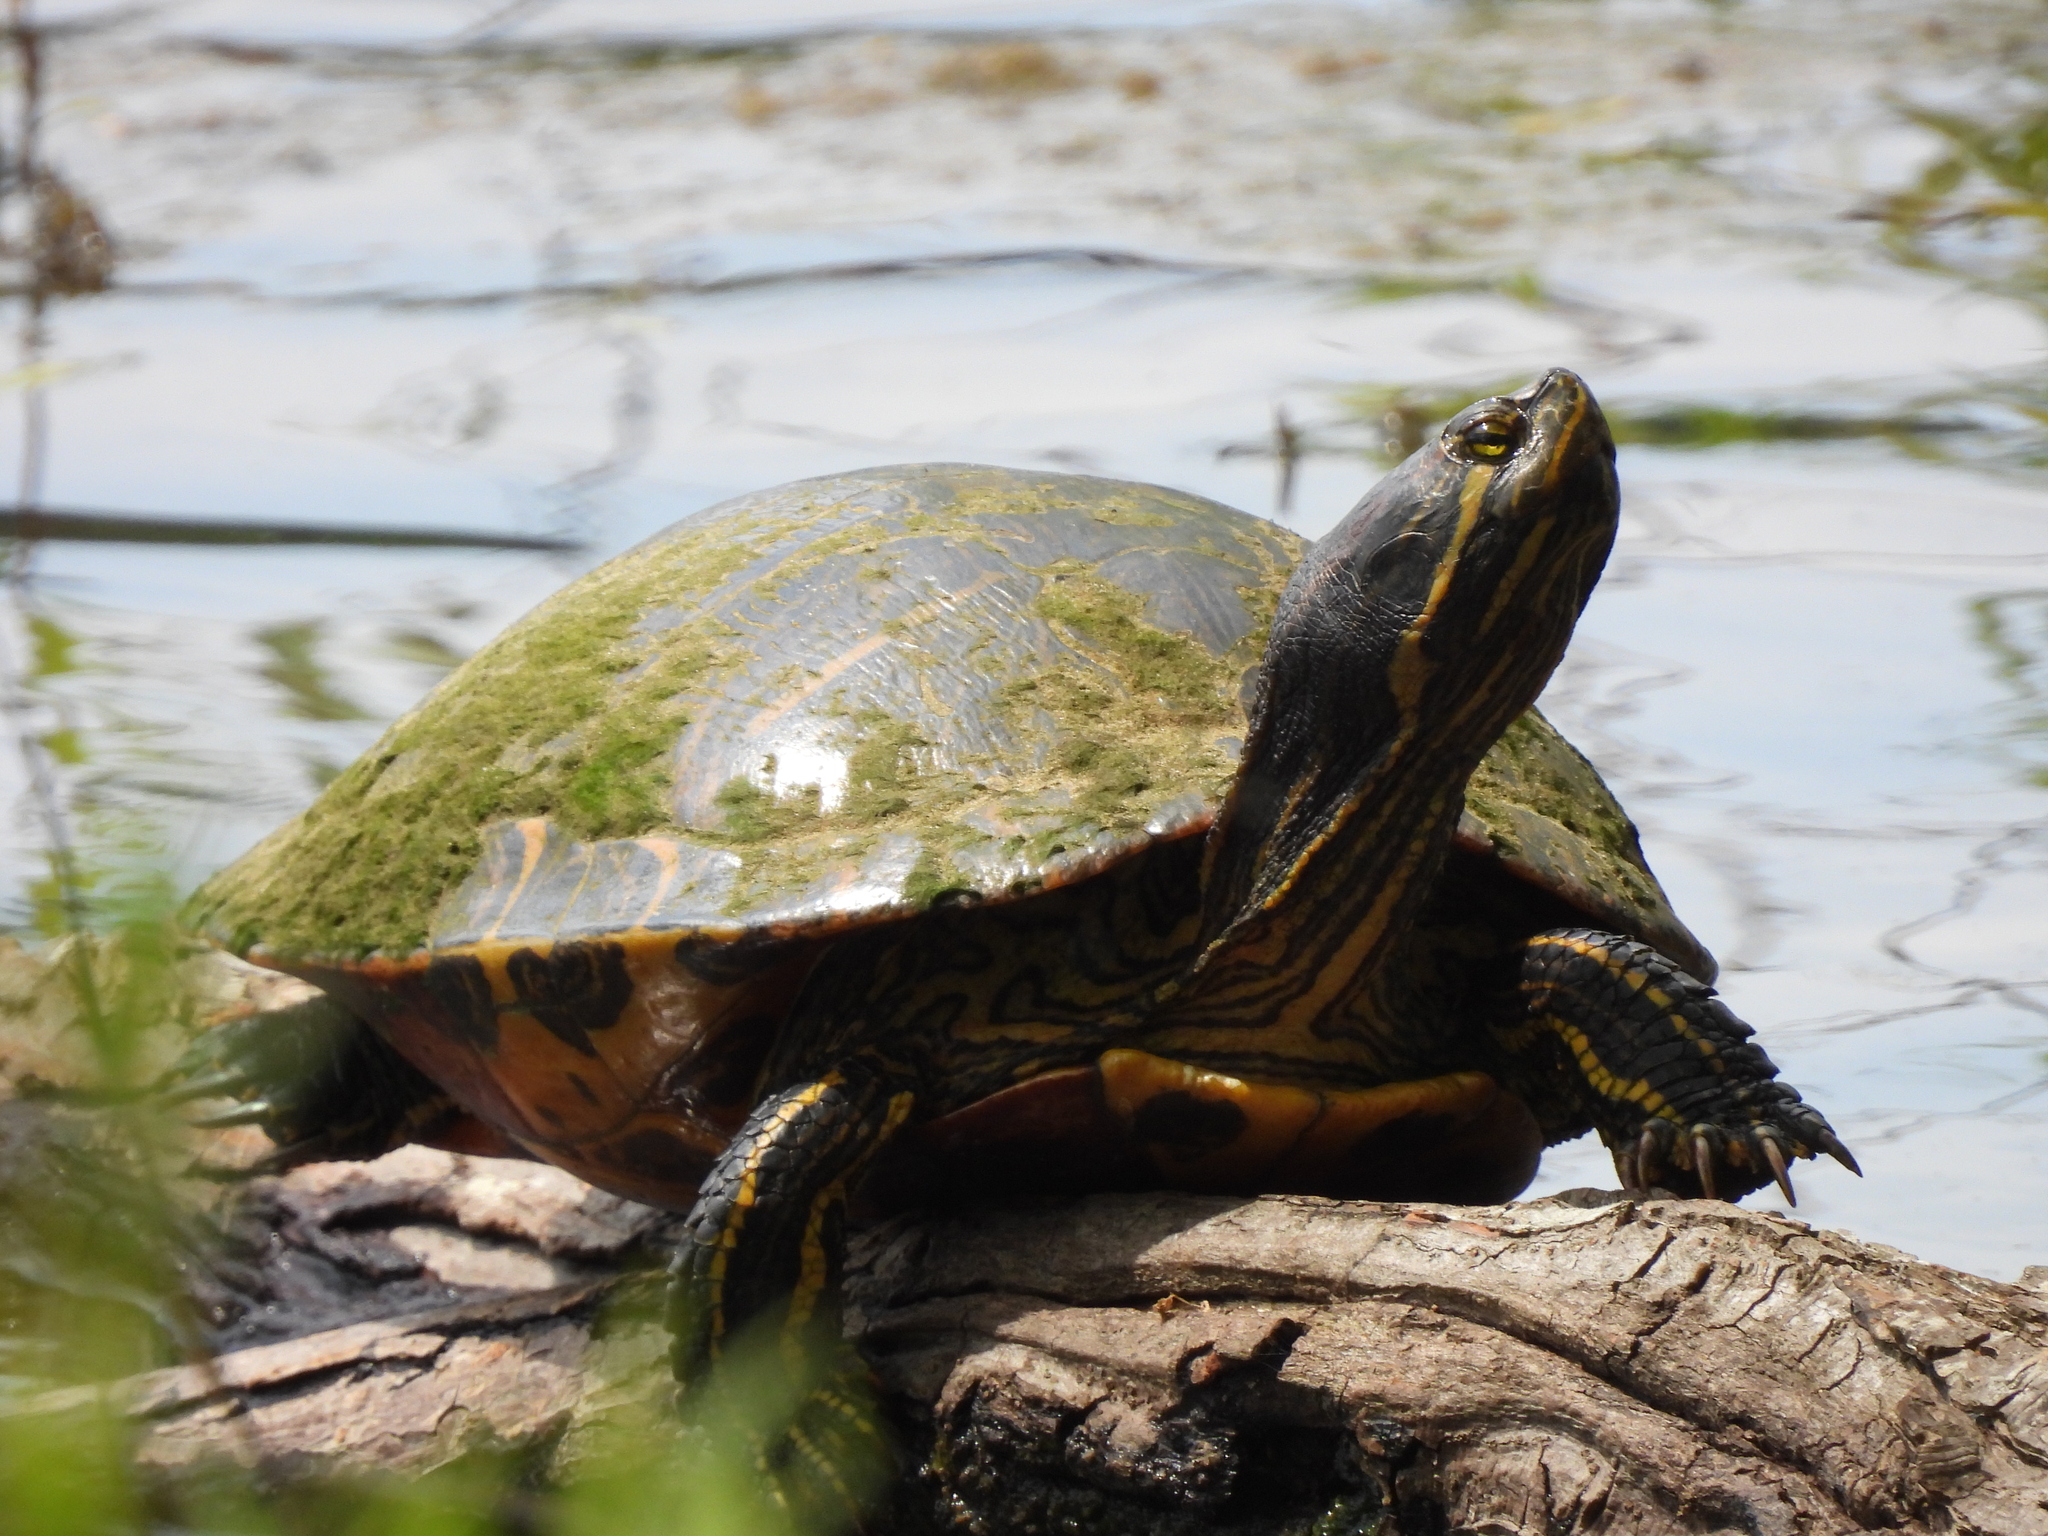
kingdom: Animalia
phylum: Chordata
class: Testudines
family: Emydidae
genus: Trachemys
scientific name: Trachemys scripta
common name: Slider
